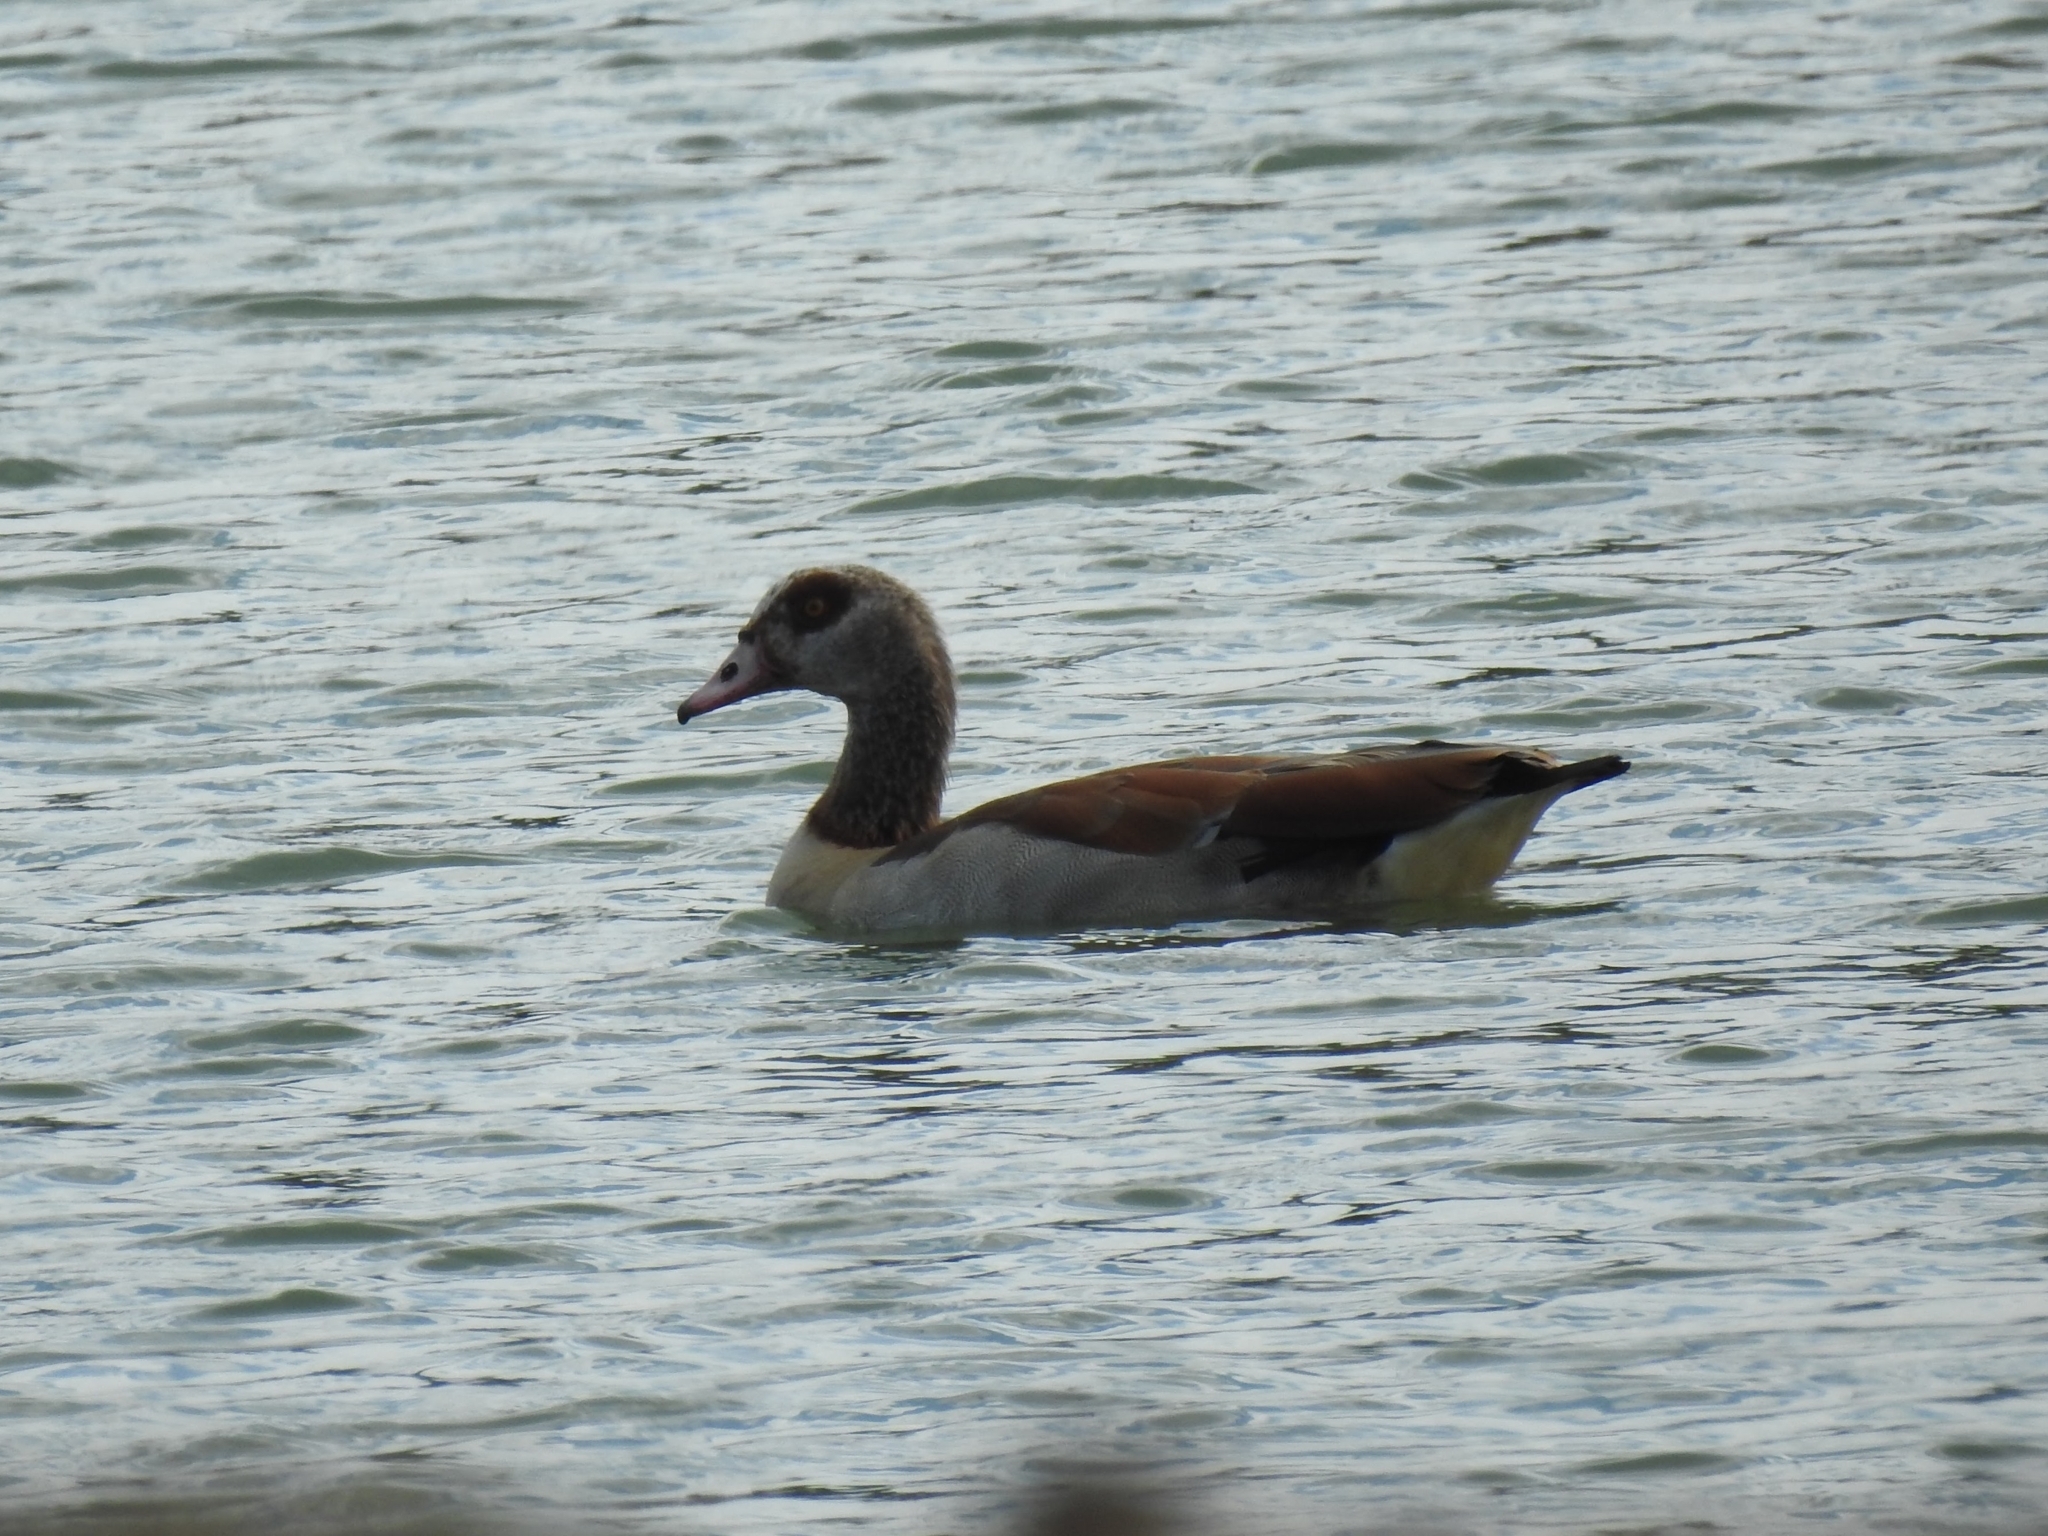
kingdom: Animalia
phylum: Chordata
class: Aves
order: Anseriformes
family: Anatidae
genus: Alopochen
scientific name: Alopochen aegyptiaca
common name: Egyptian goose
